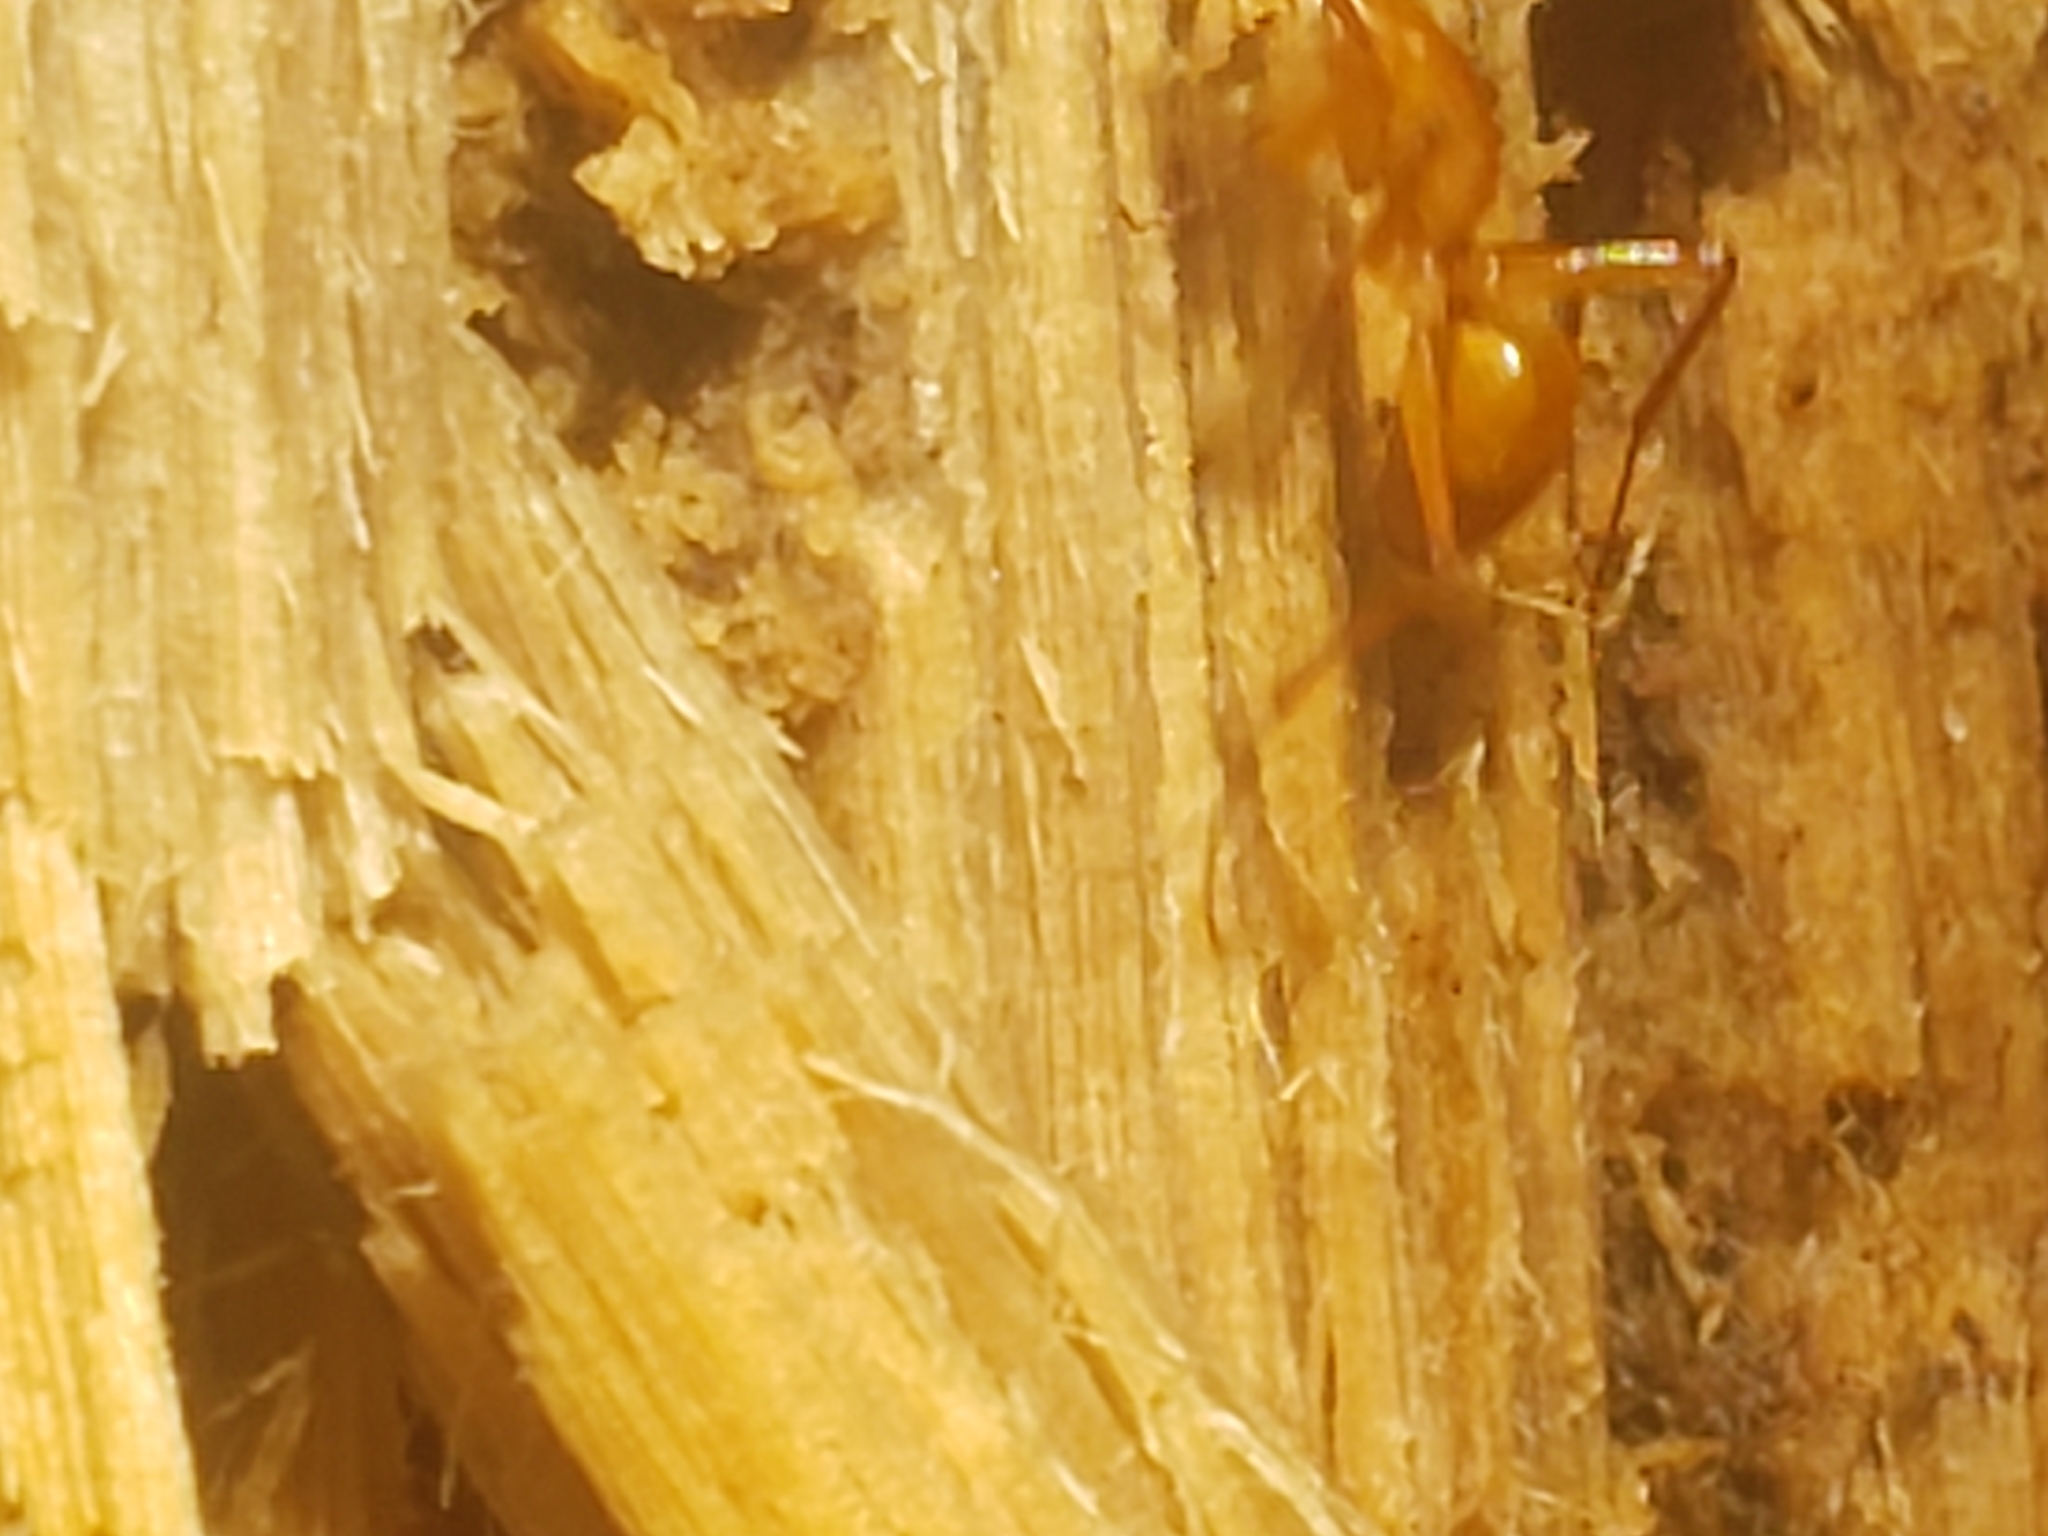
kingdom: Animalia
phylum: Arthropoda
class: Insecta
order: Hymenoptera
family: Formicidae
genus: Camponotus
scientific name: Camponotus castaneus
